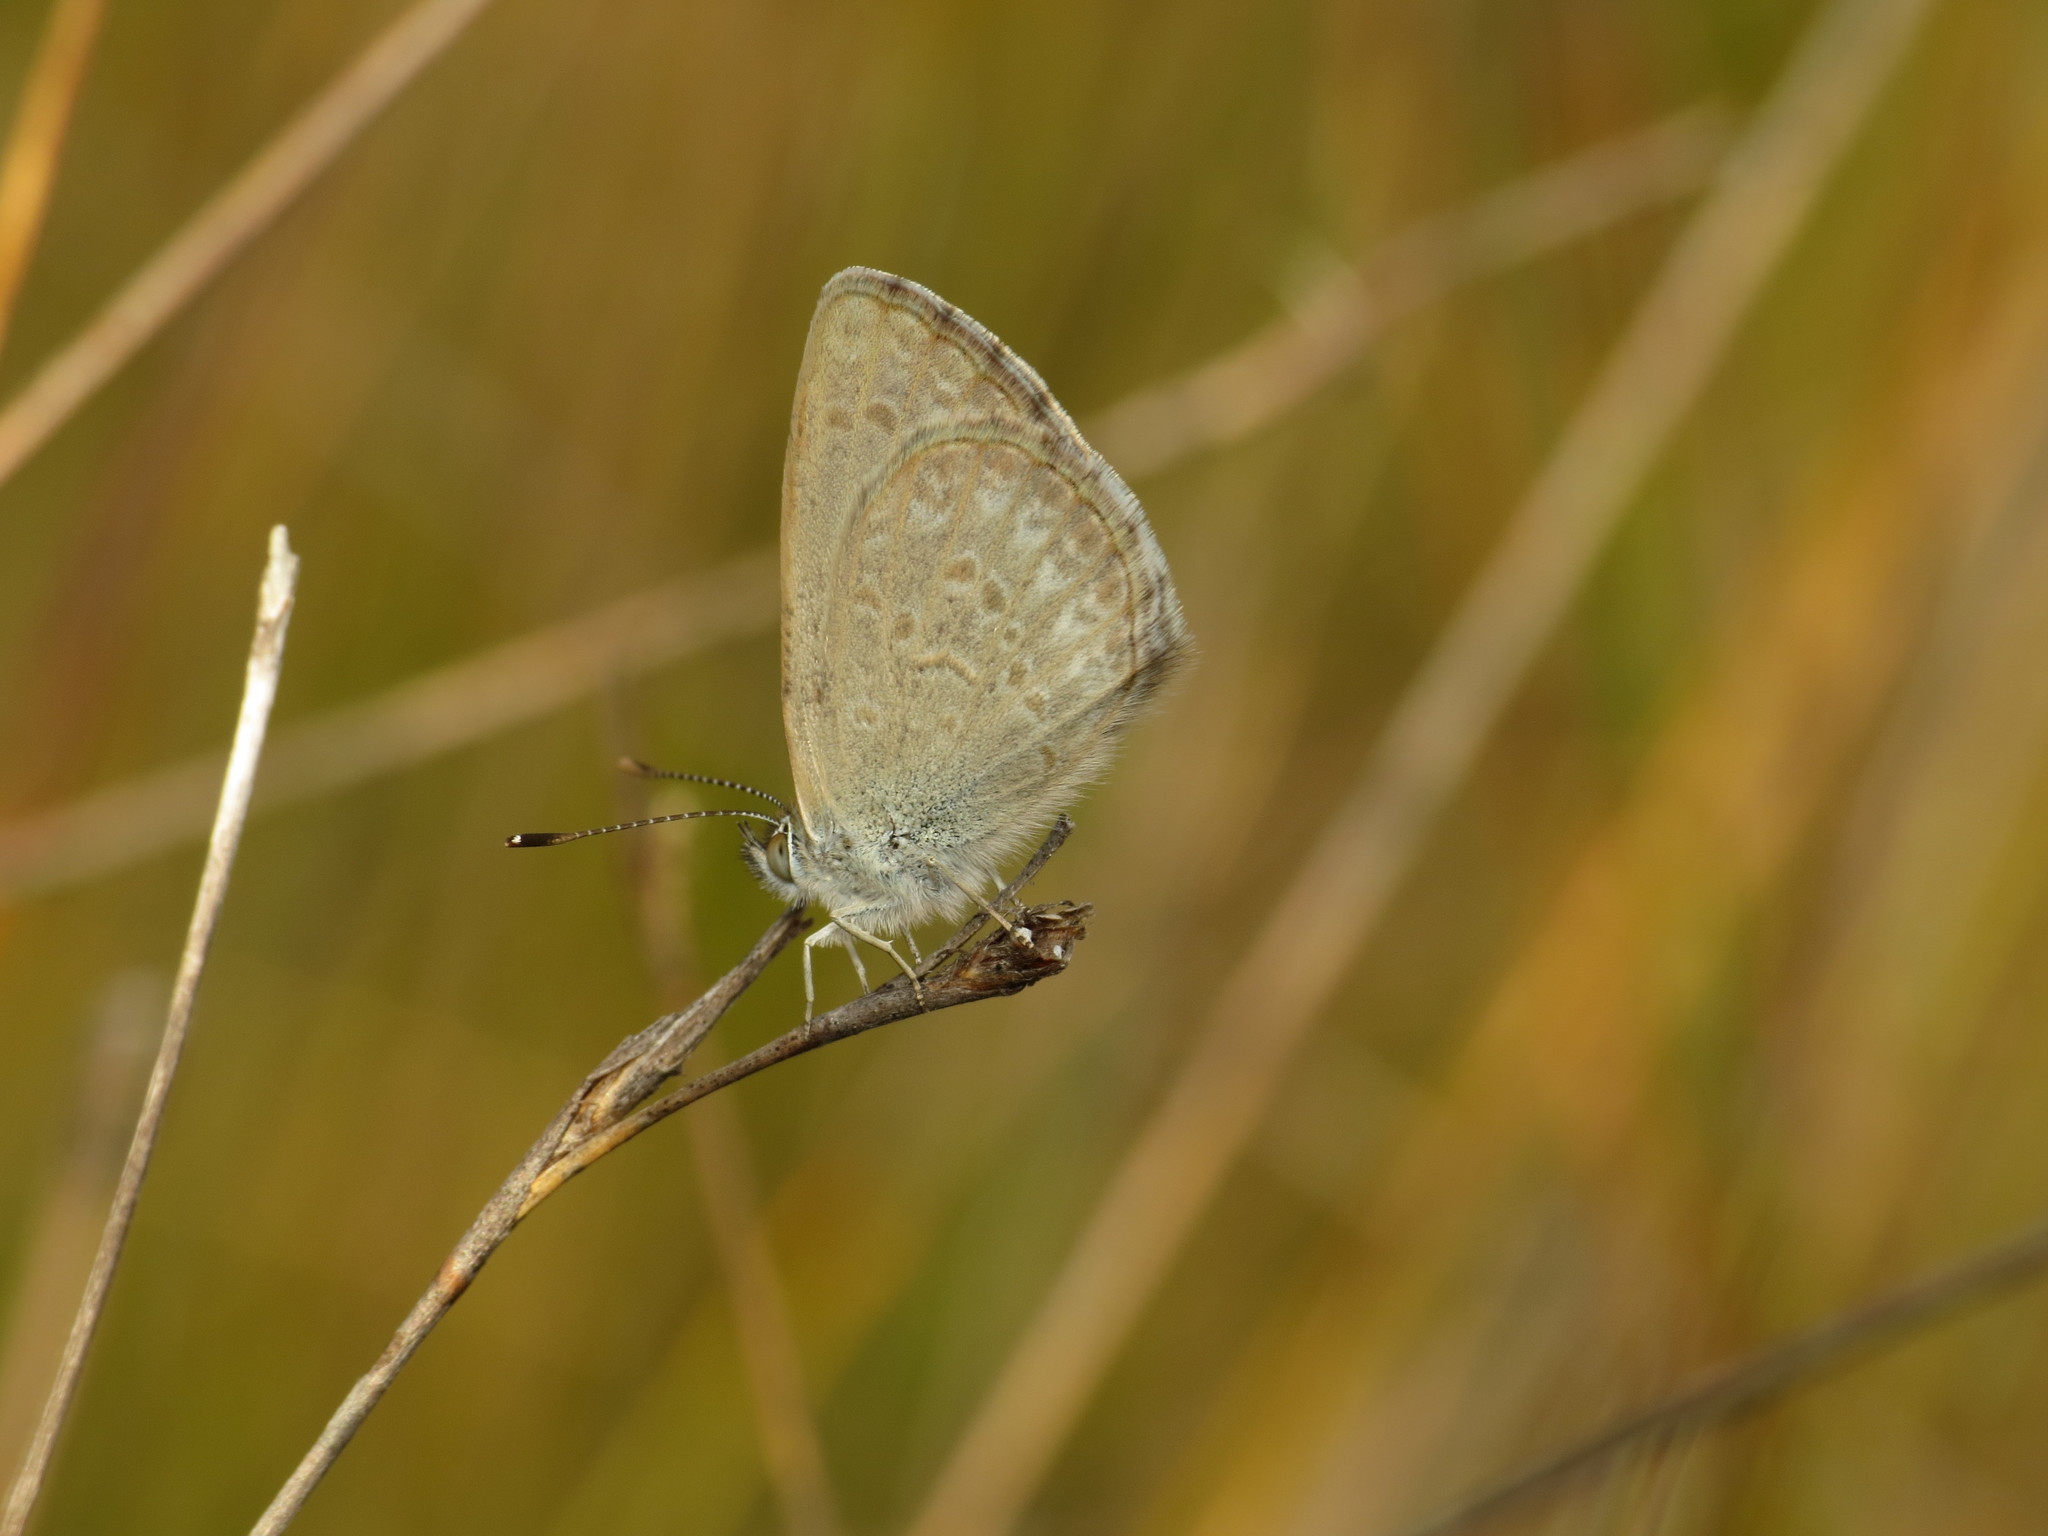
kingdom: Animalia
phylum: Arthropoda
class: Insecta
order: Lepidoptera
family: Lycaenidae
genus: Zizina
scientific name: Zizina labradus
